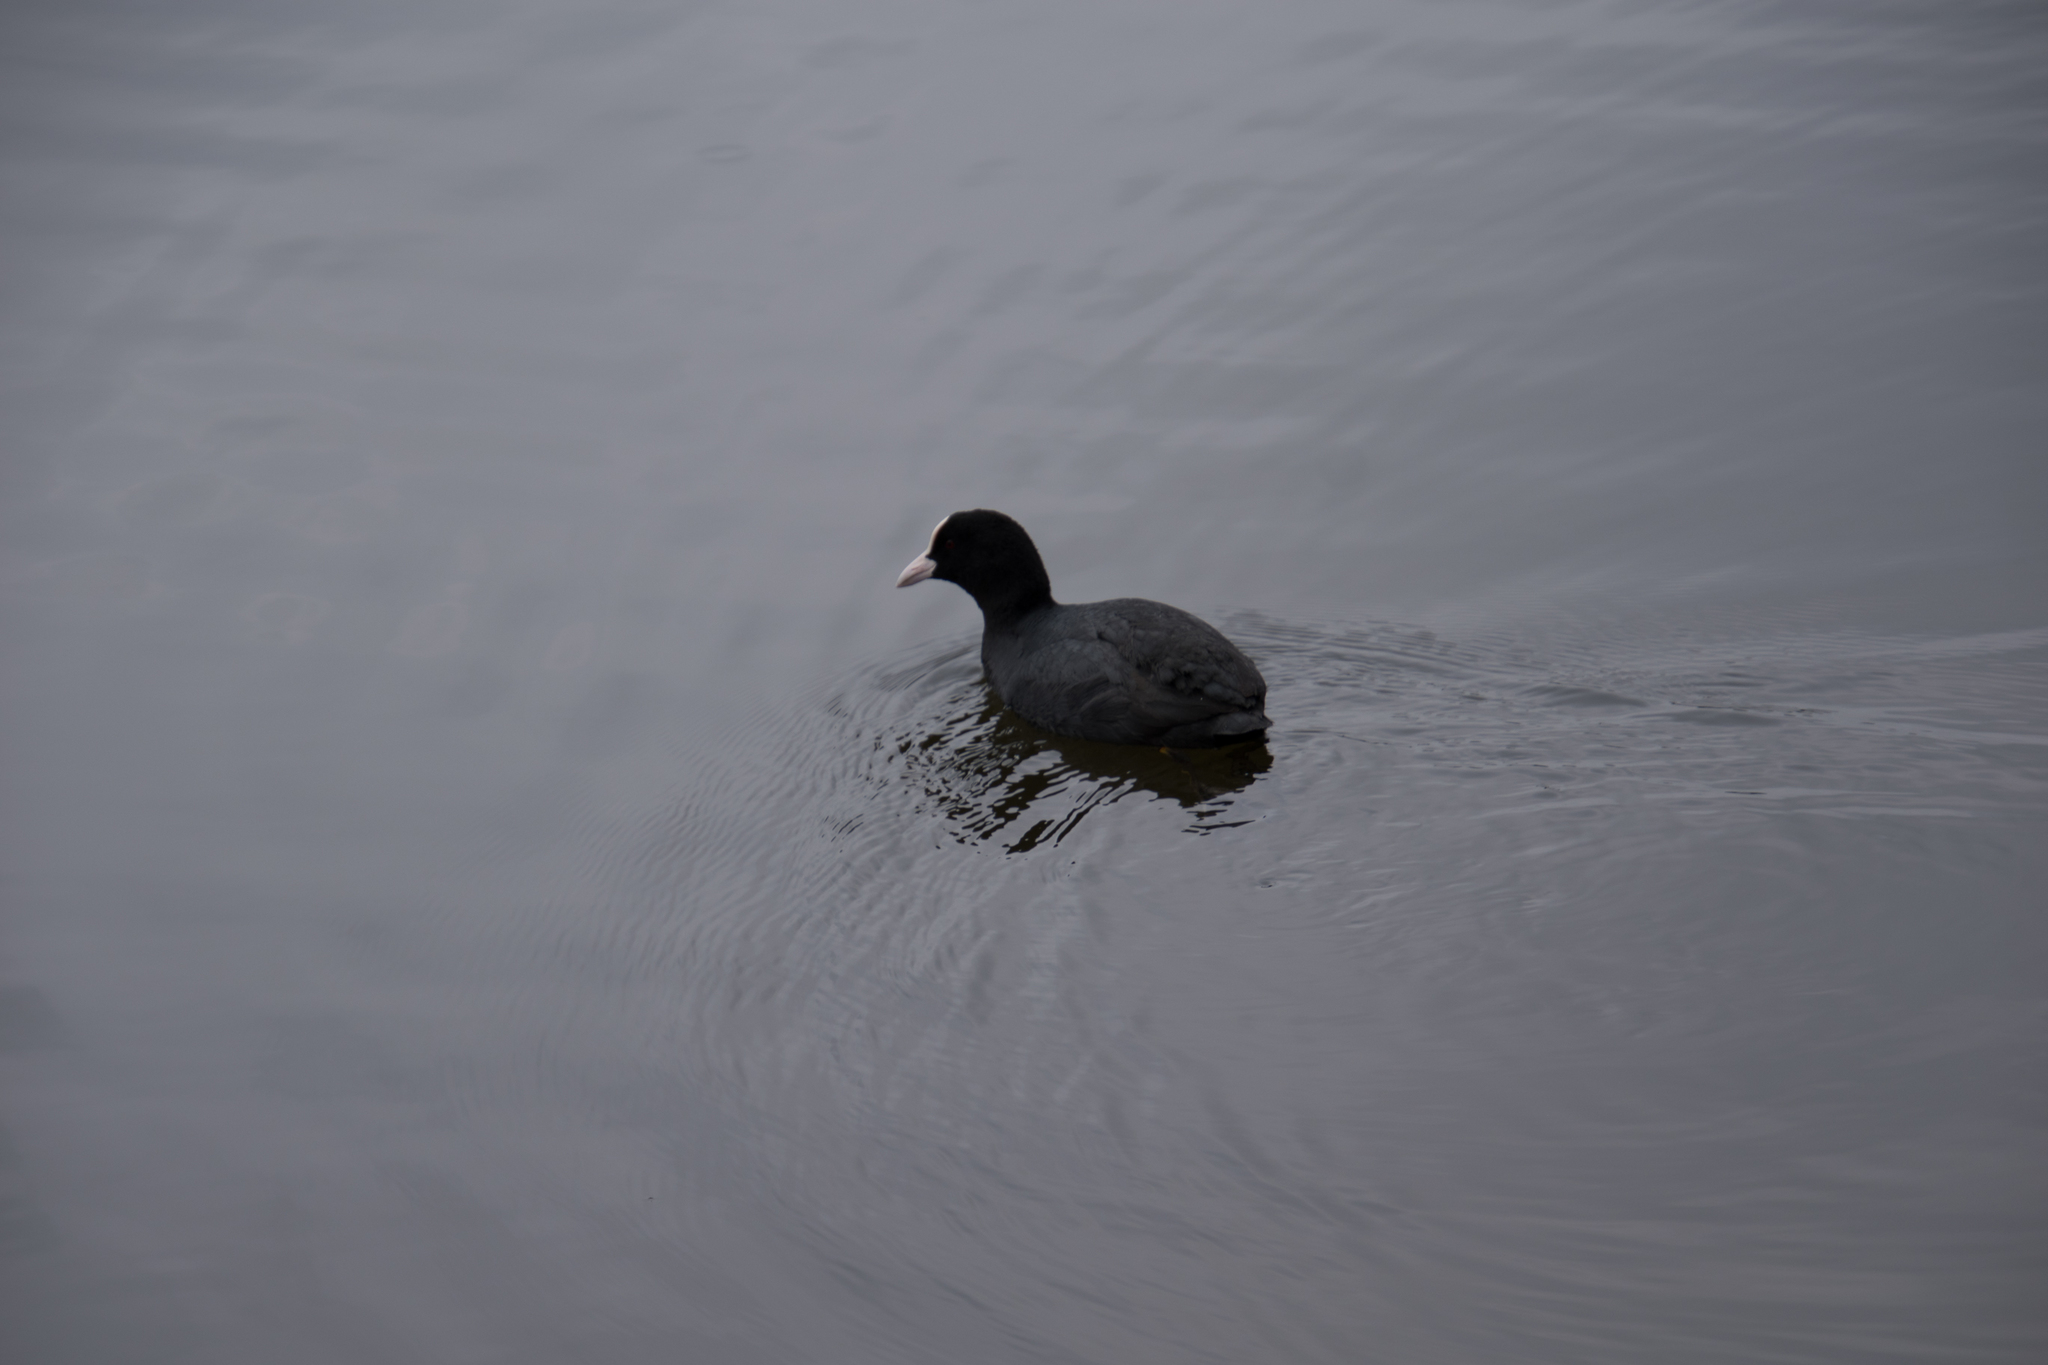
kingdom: Animalia
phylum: Chordata
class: Aves
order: Gruiformes
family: Rallidae
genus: Fulica
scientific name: Fulica atra
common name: Eurasian coot
